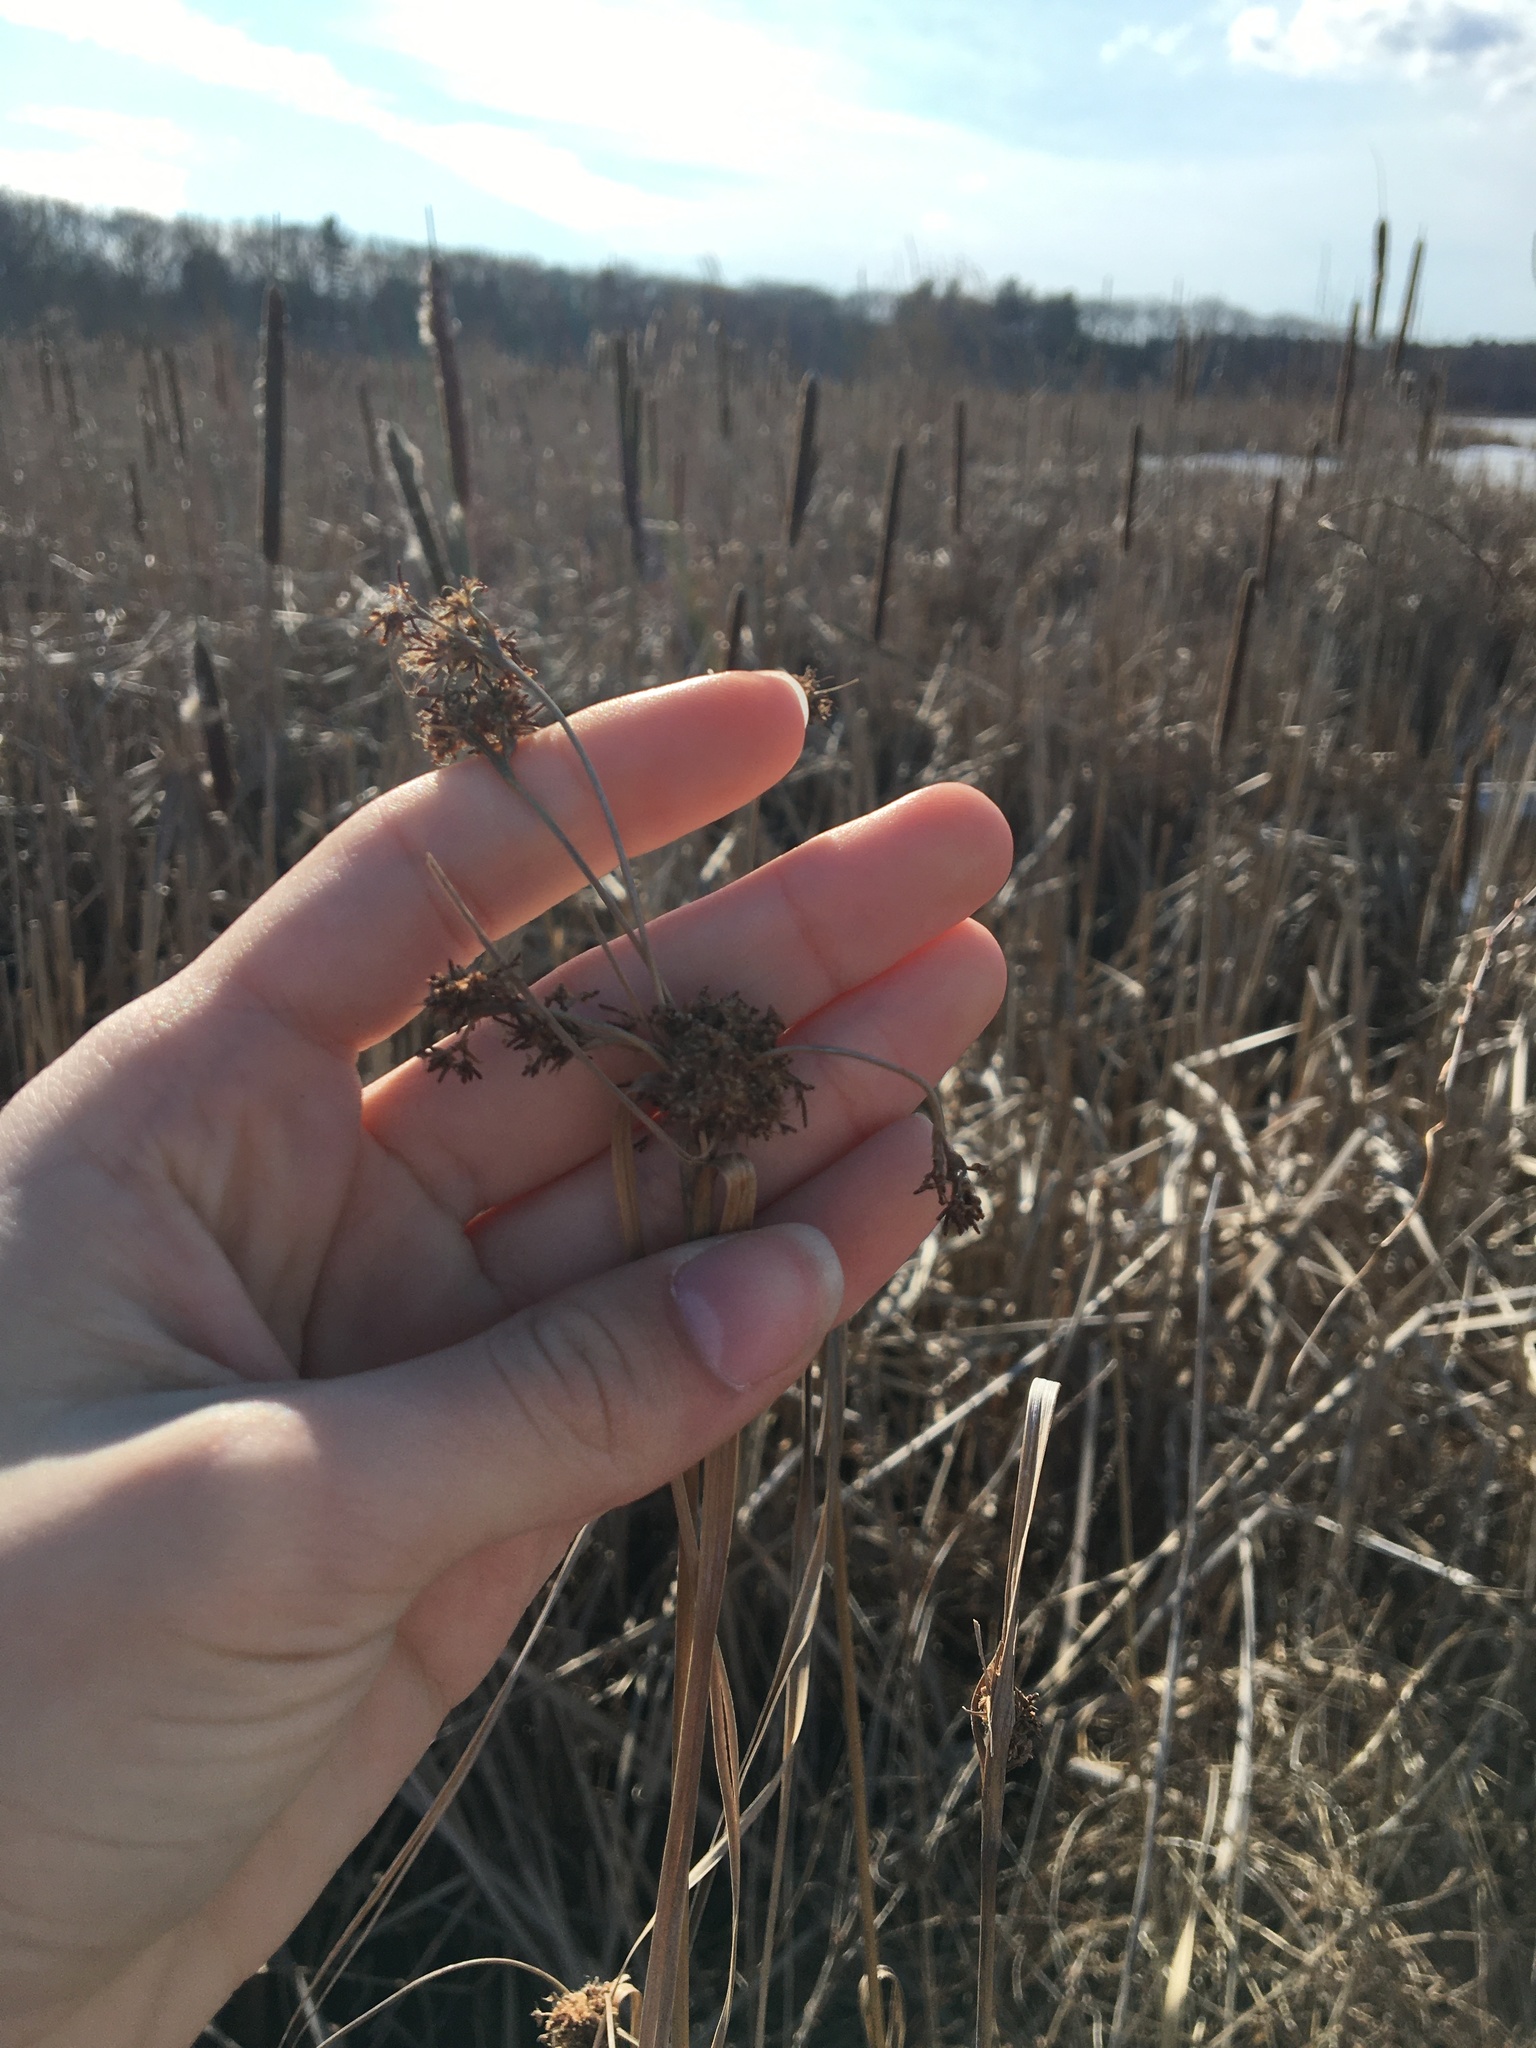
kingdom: Plantae
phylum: Tracheophyta
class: Liliopsida
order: Poales
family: Cyperaceae
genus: Scirpus
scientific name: Scirpus
